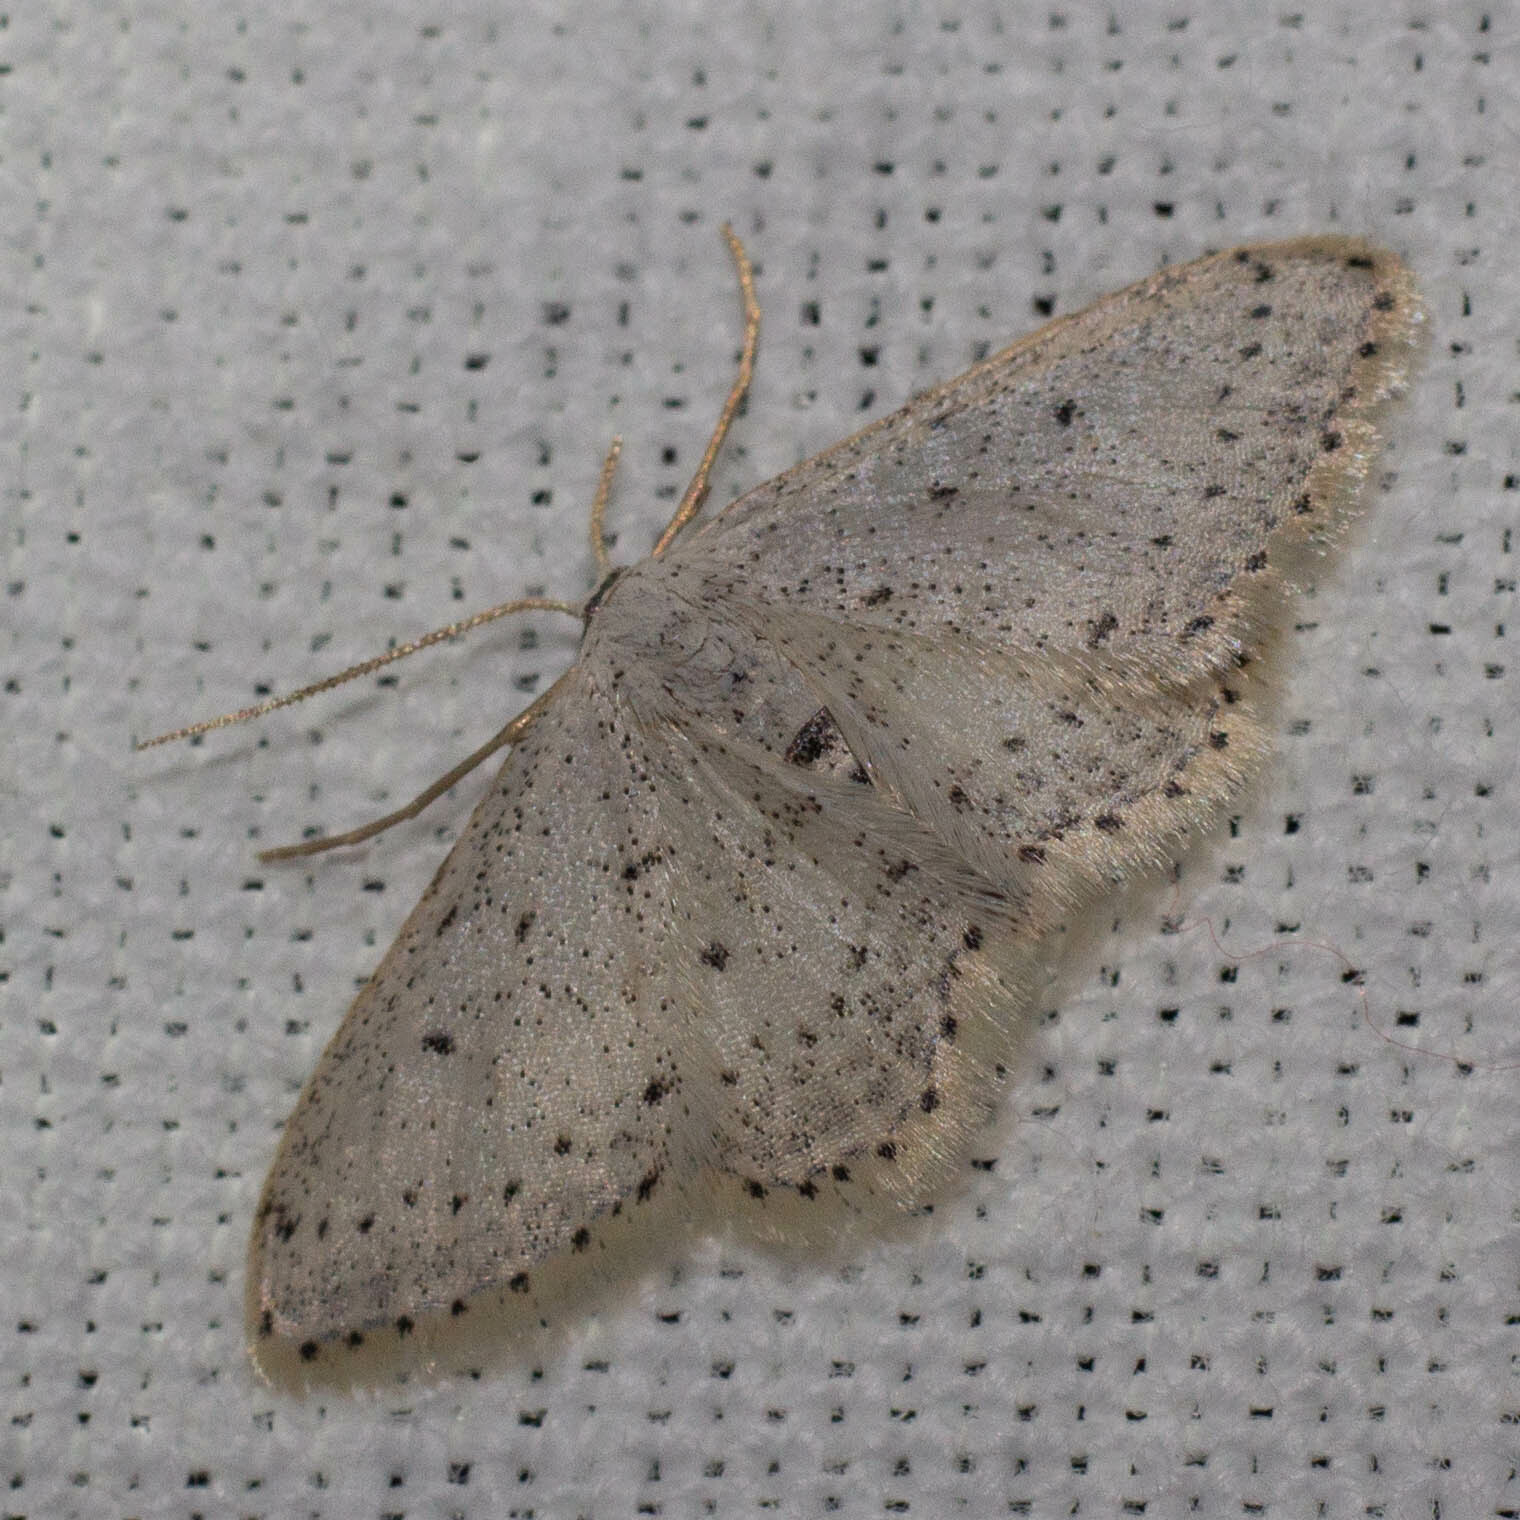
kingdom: Animalia
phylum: Arthropoda
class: Insecta
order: Lepidoptera
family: Geometridae
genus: Idaea
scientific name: Idaea seriata
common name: Small dusty wave
